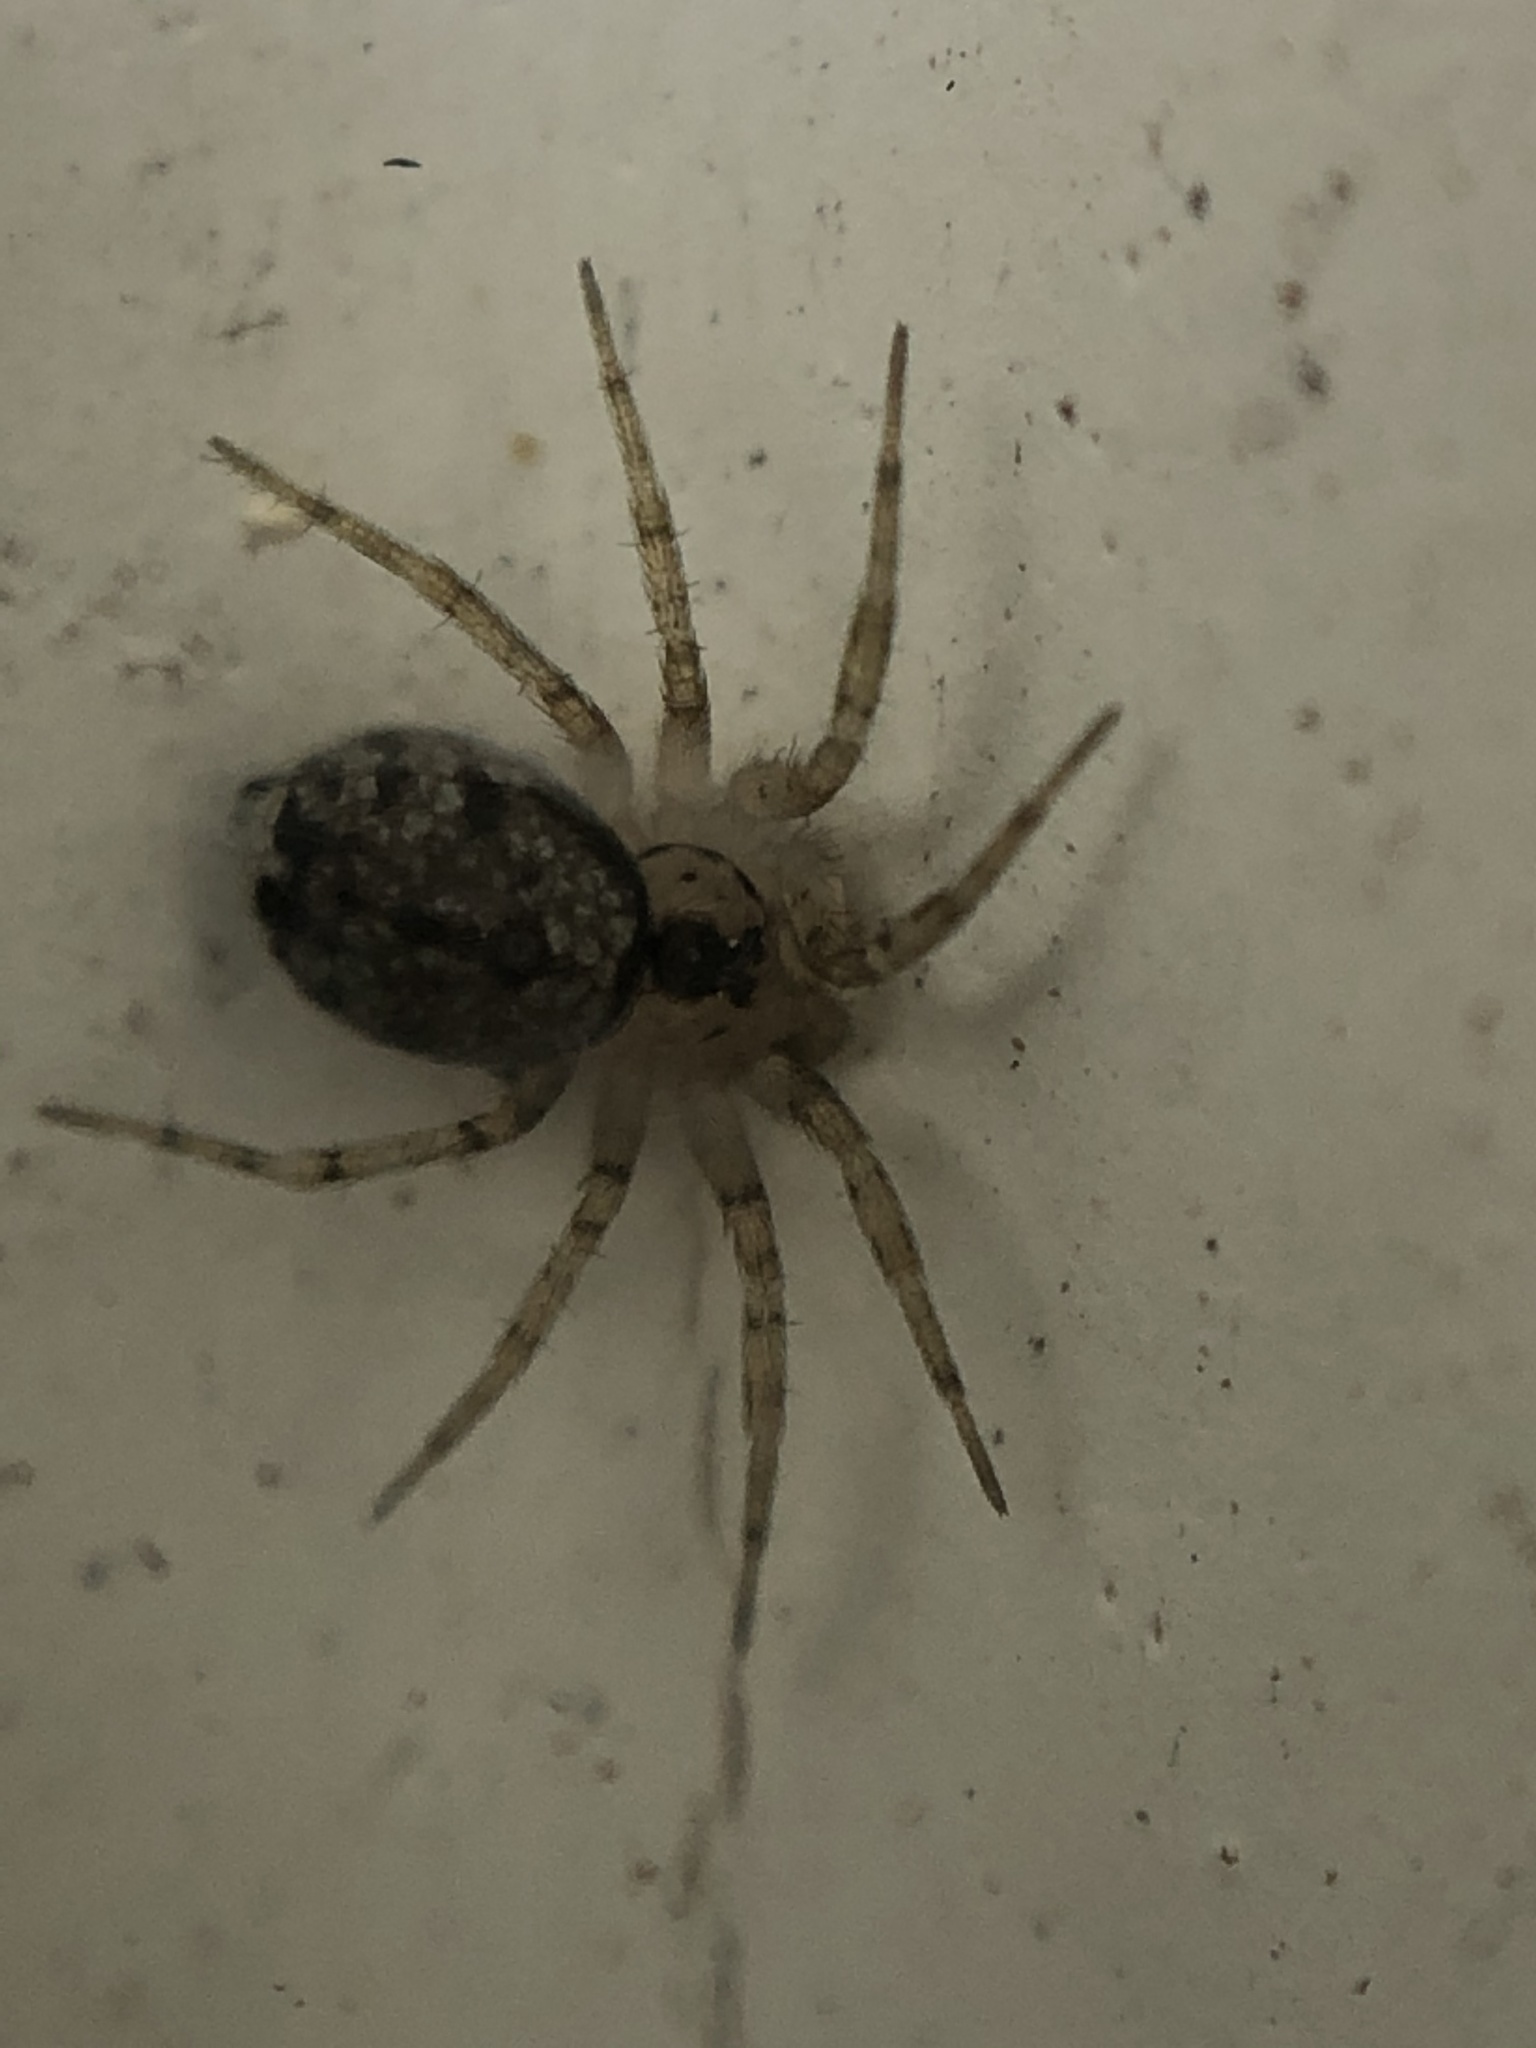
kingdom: Animalia
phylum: Arthropoda
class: Arachnida
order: Araneae
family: Oecobiidae
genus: Oecobius
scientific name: Oecobius navus
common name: Flatmesh weaver
